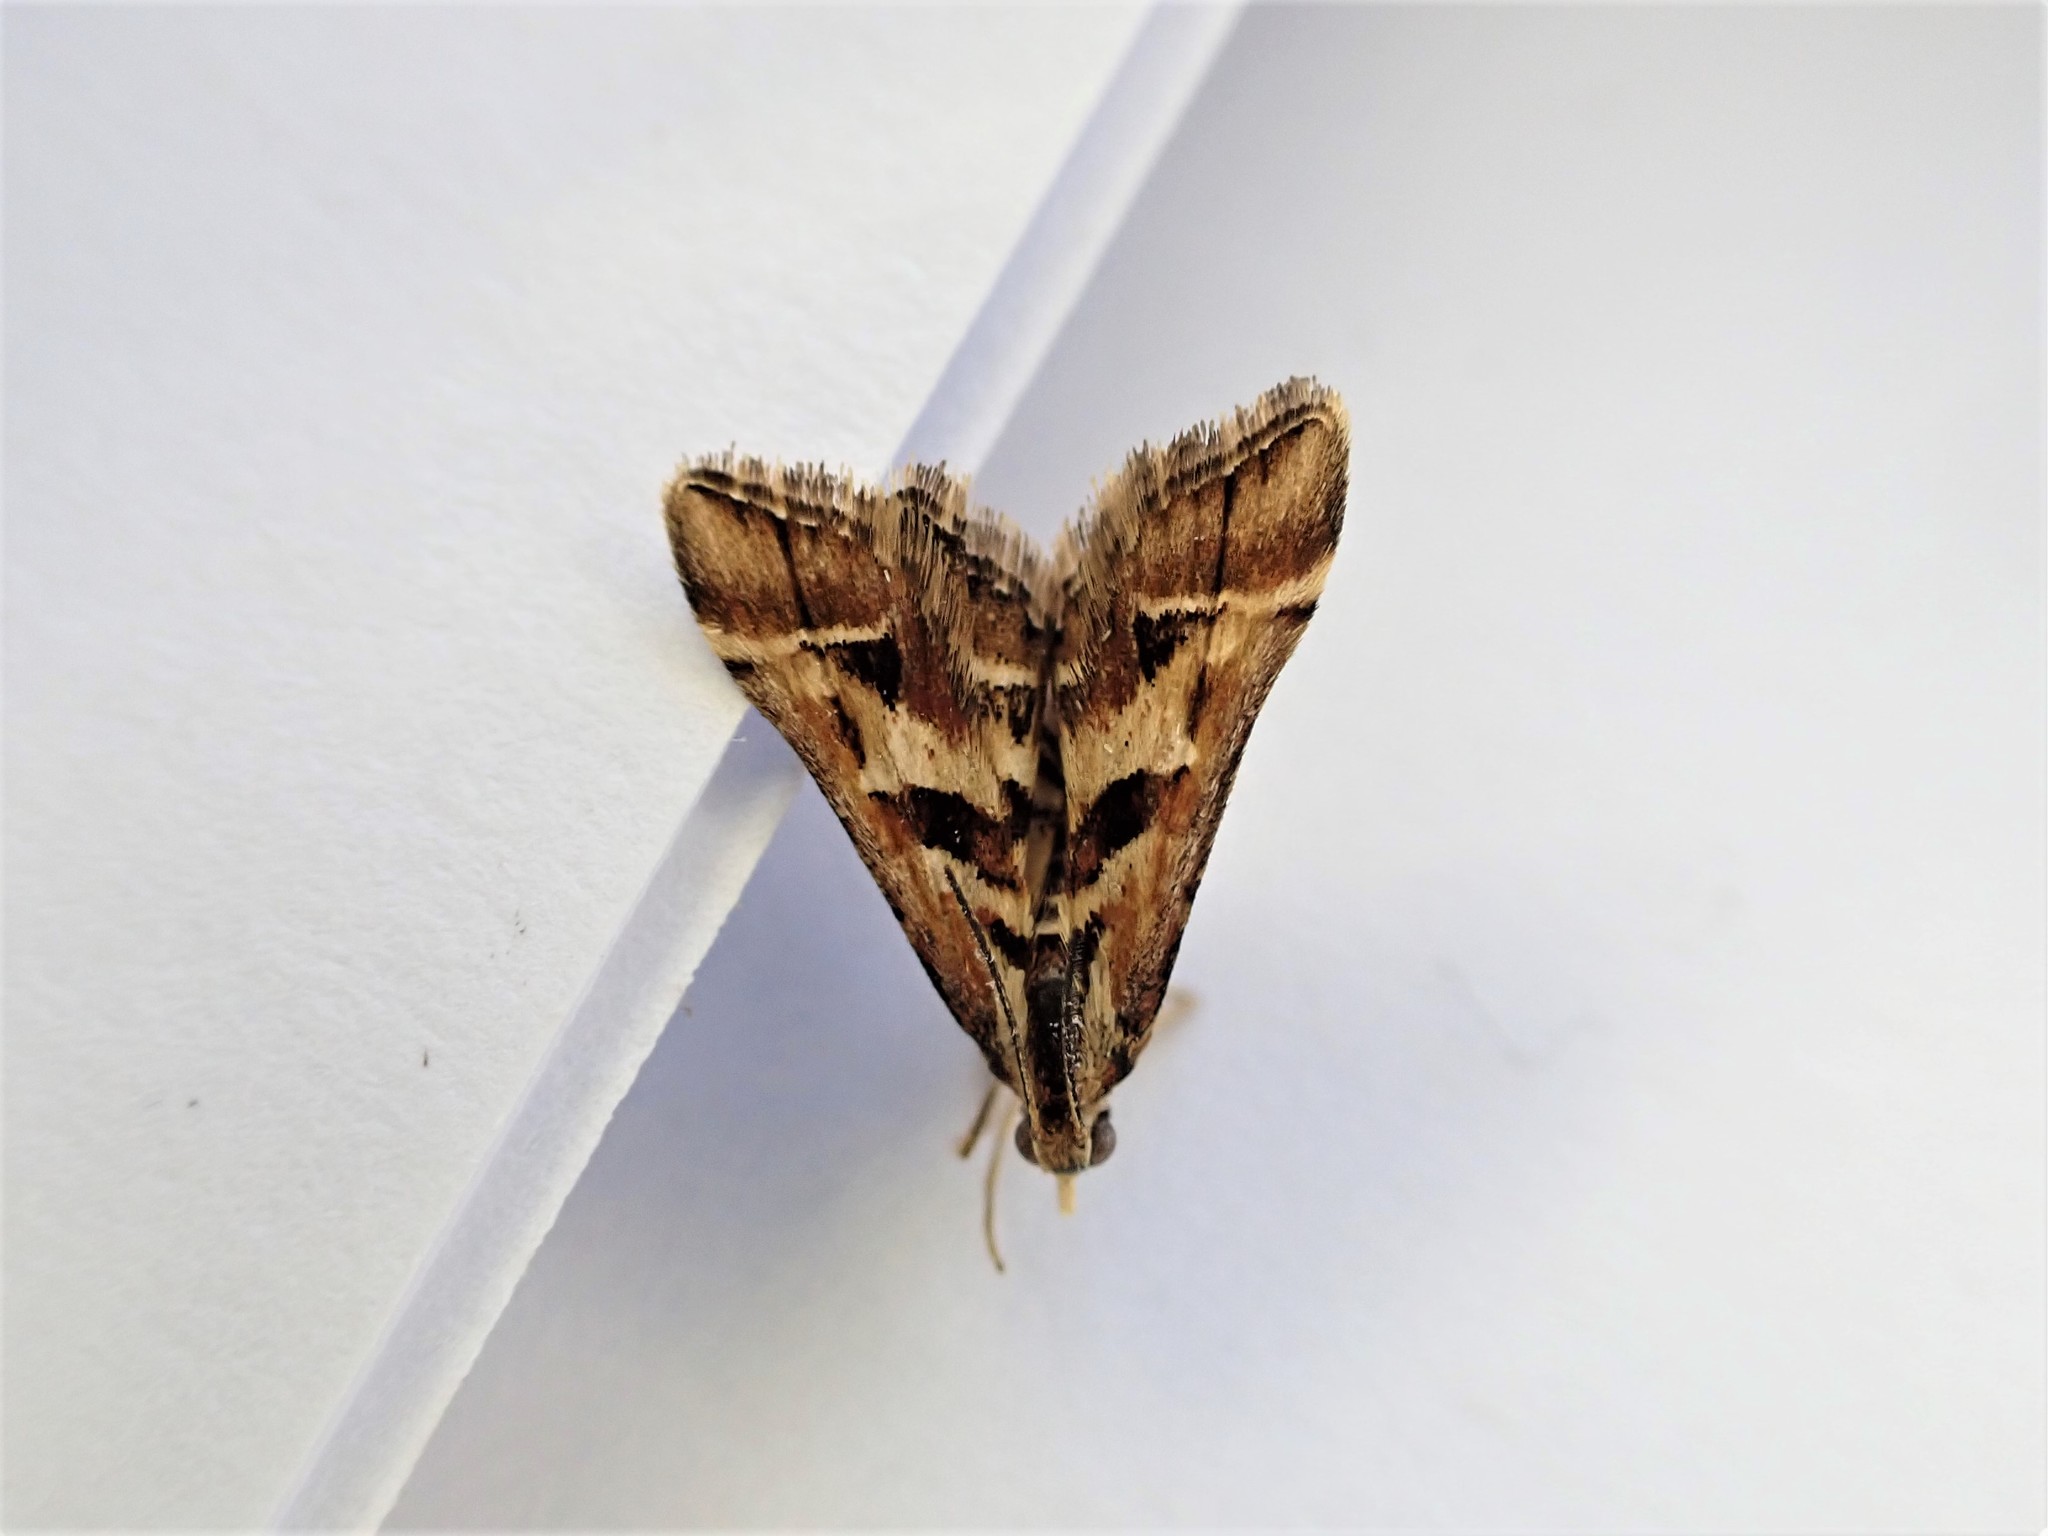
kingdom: Animalia
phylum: Arthropoda
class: Insecta
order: Lepidoptera
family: Crambidae
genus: Diasemia
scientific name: Diasemia grammalis
